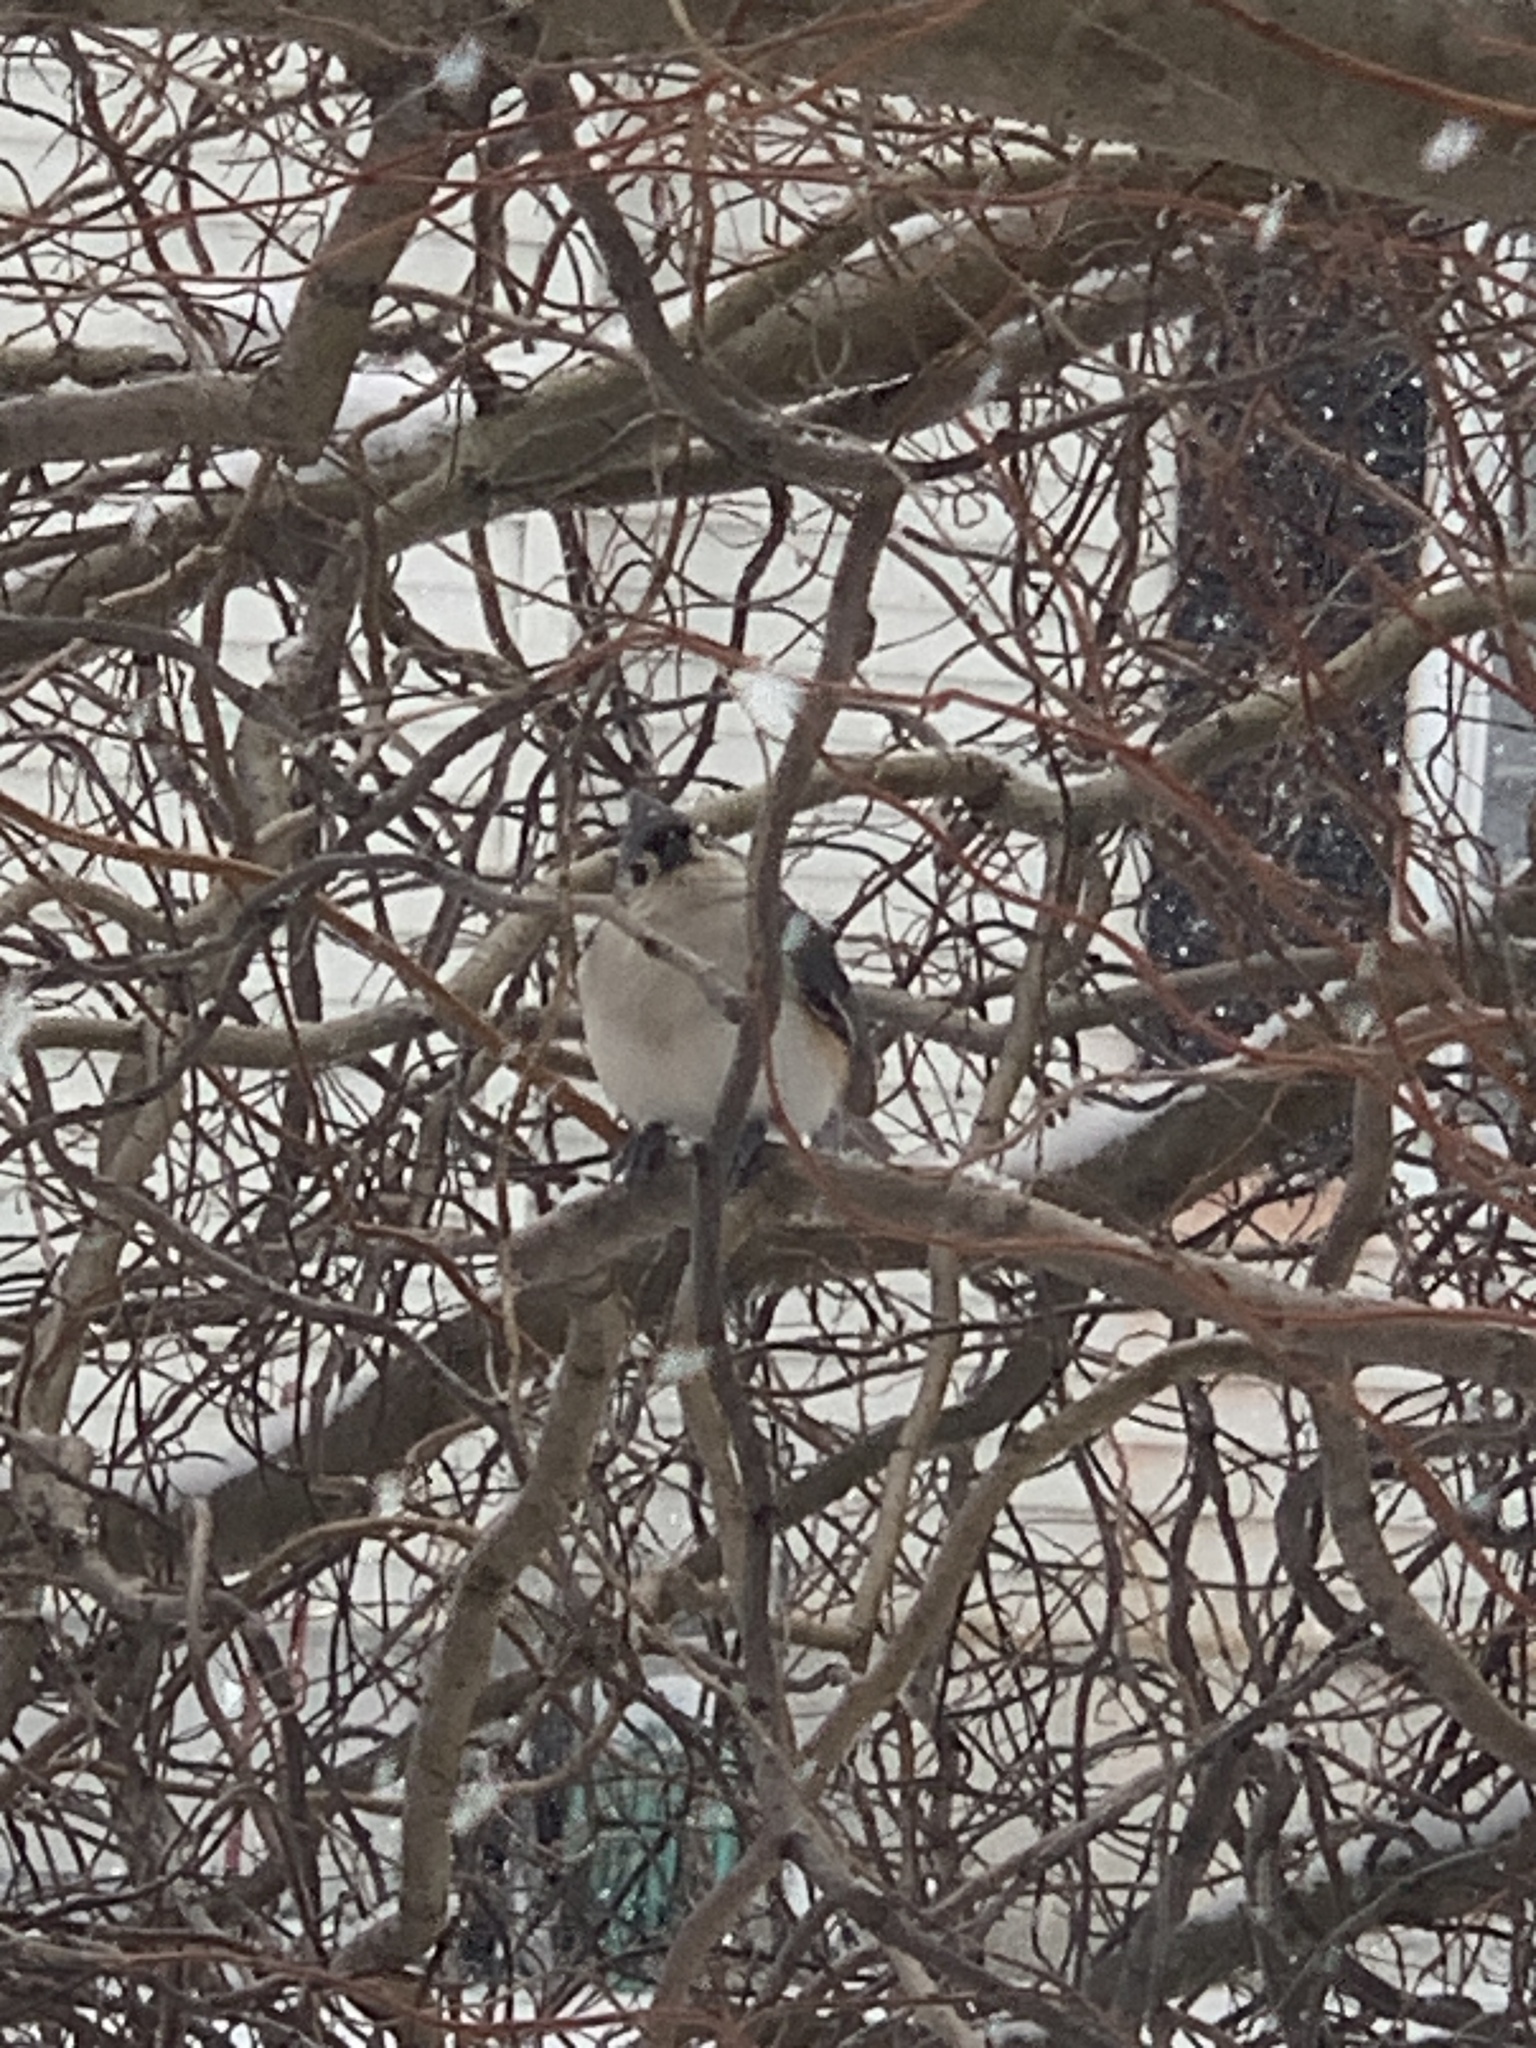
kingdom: Animalia
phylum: Chordata
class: Aves
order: Passeriformes
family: Paridae
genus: Baeolophus
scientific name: Baeolophus bicolor
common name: Tufted titmouse
